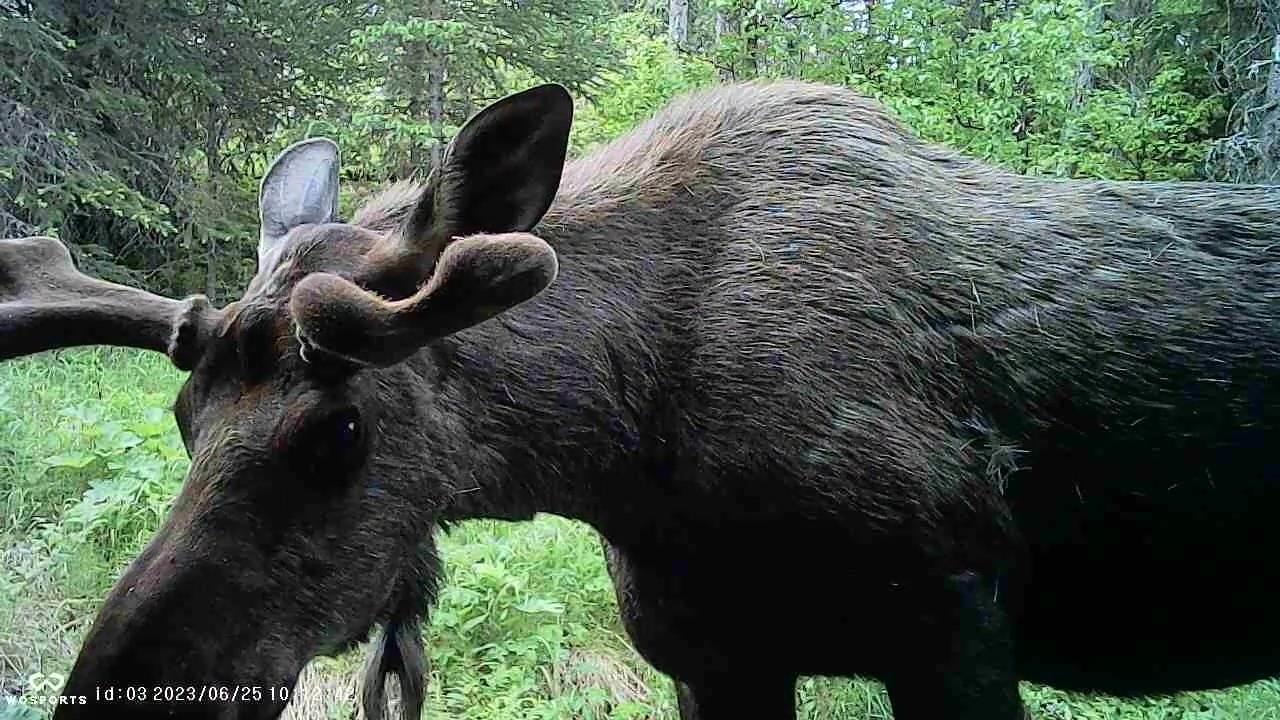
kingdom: Animalia
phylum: Chordata
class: Mammalia
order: Artiodactyla
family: Cervidae
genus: Alces
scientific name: Alces alces
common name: Moose
